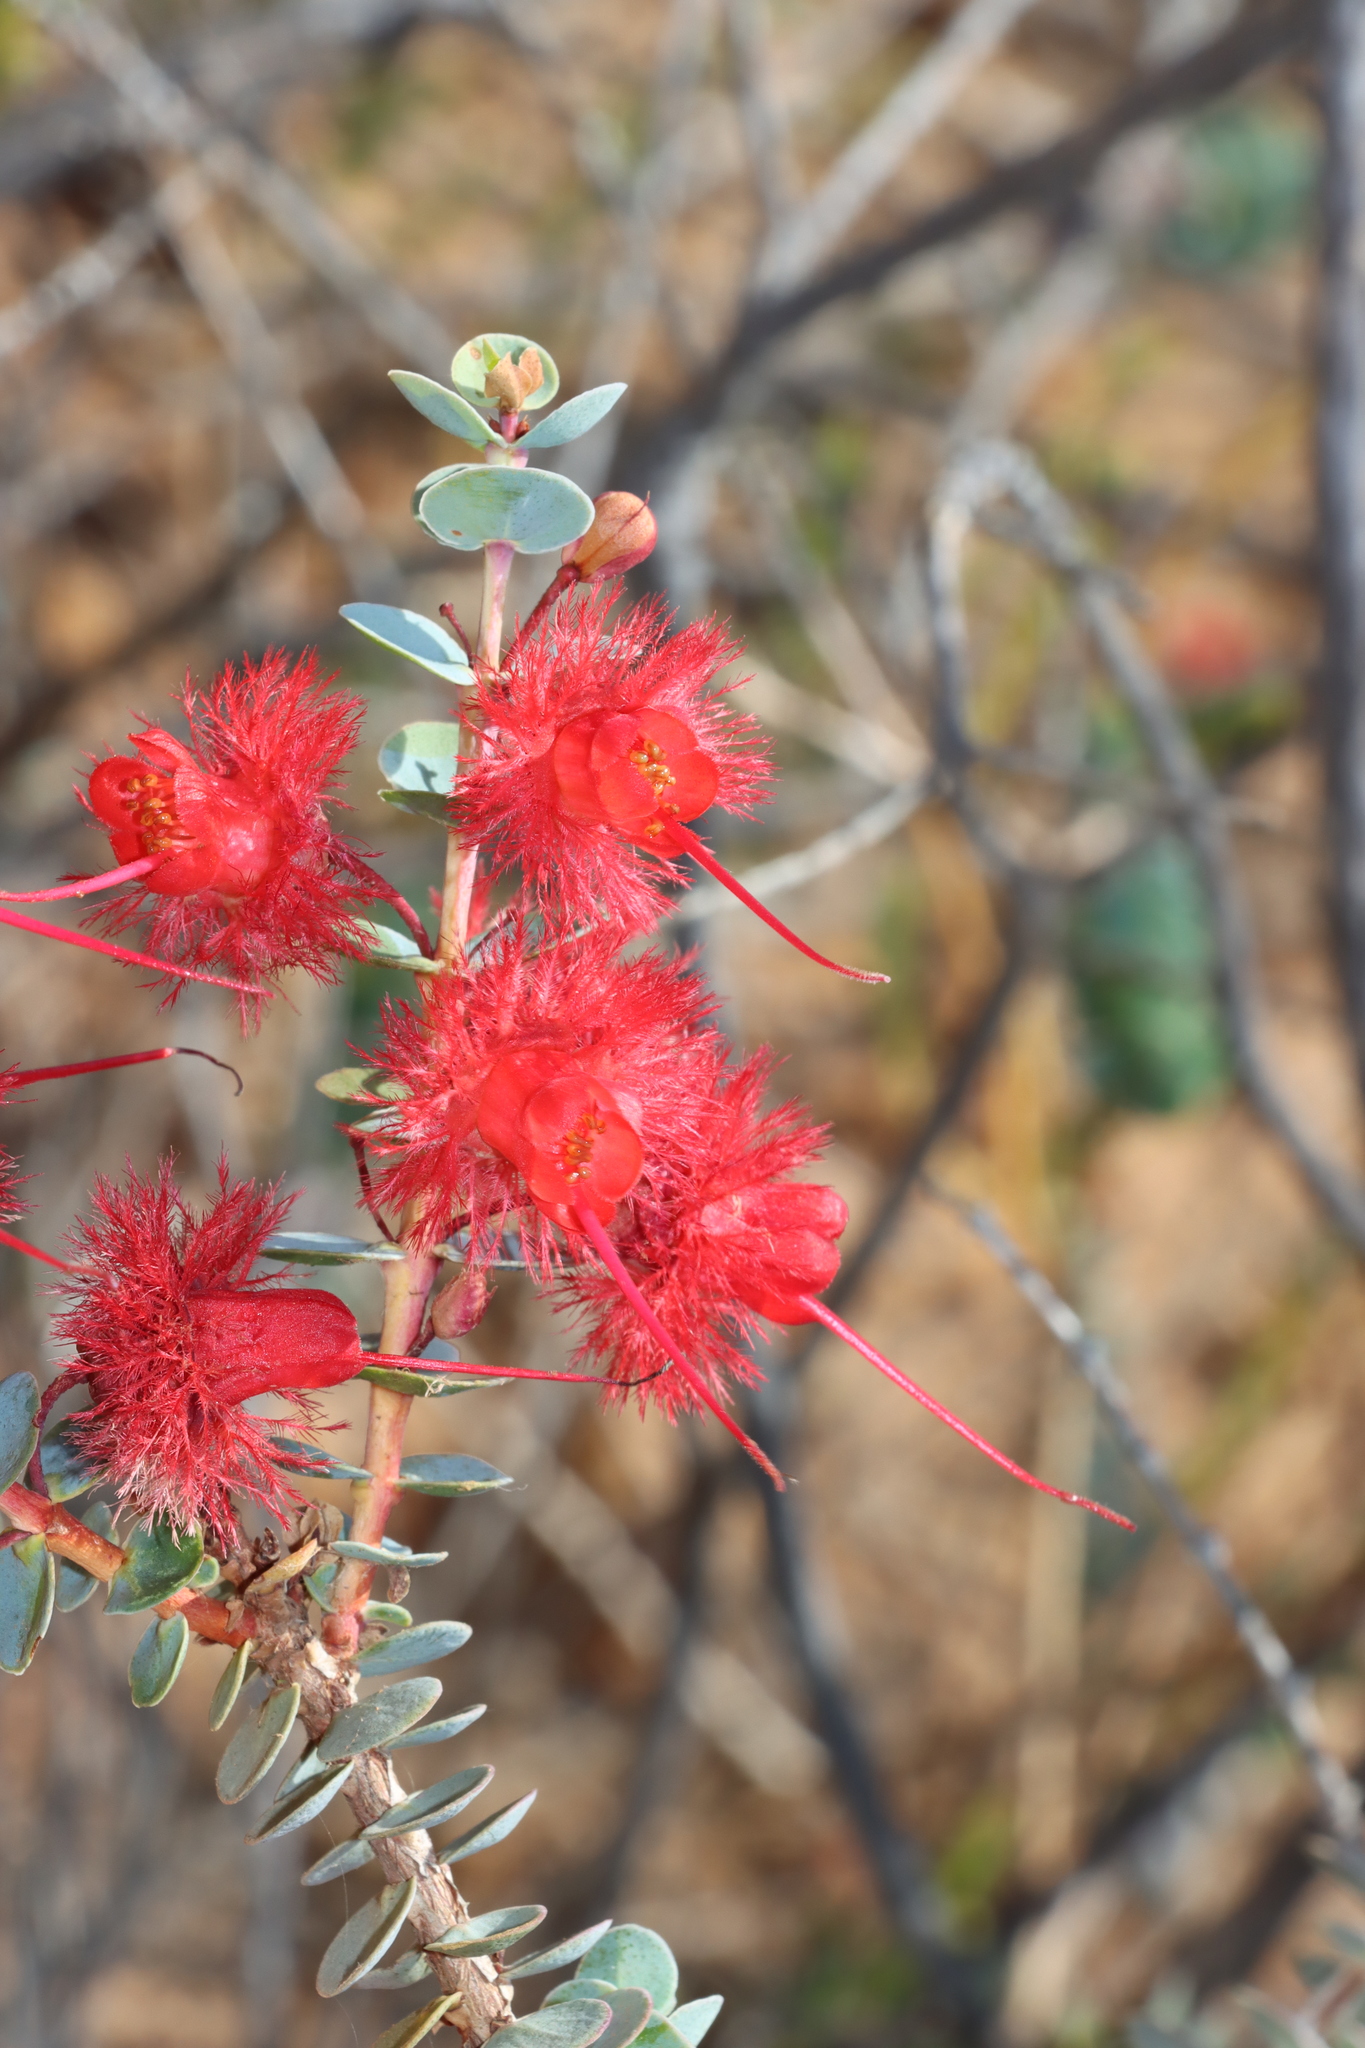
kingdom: Plantae
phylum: Tracheophyta
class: Magnoliopsida
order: Myrtales
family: Myrtaceae
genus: Verticordia
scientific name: Verticordia grandis
